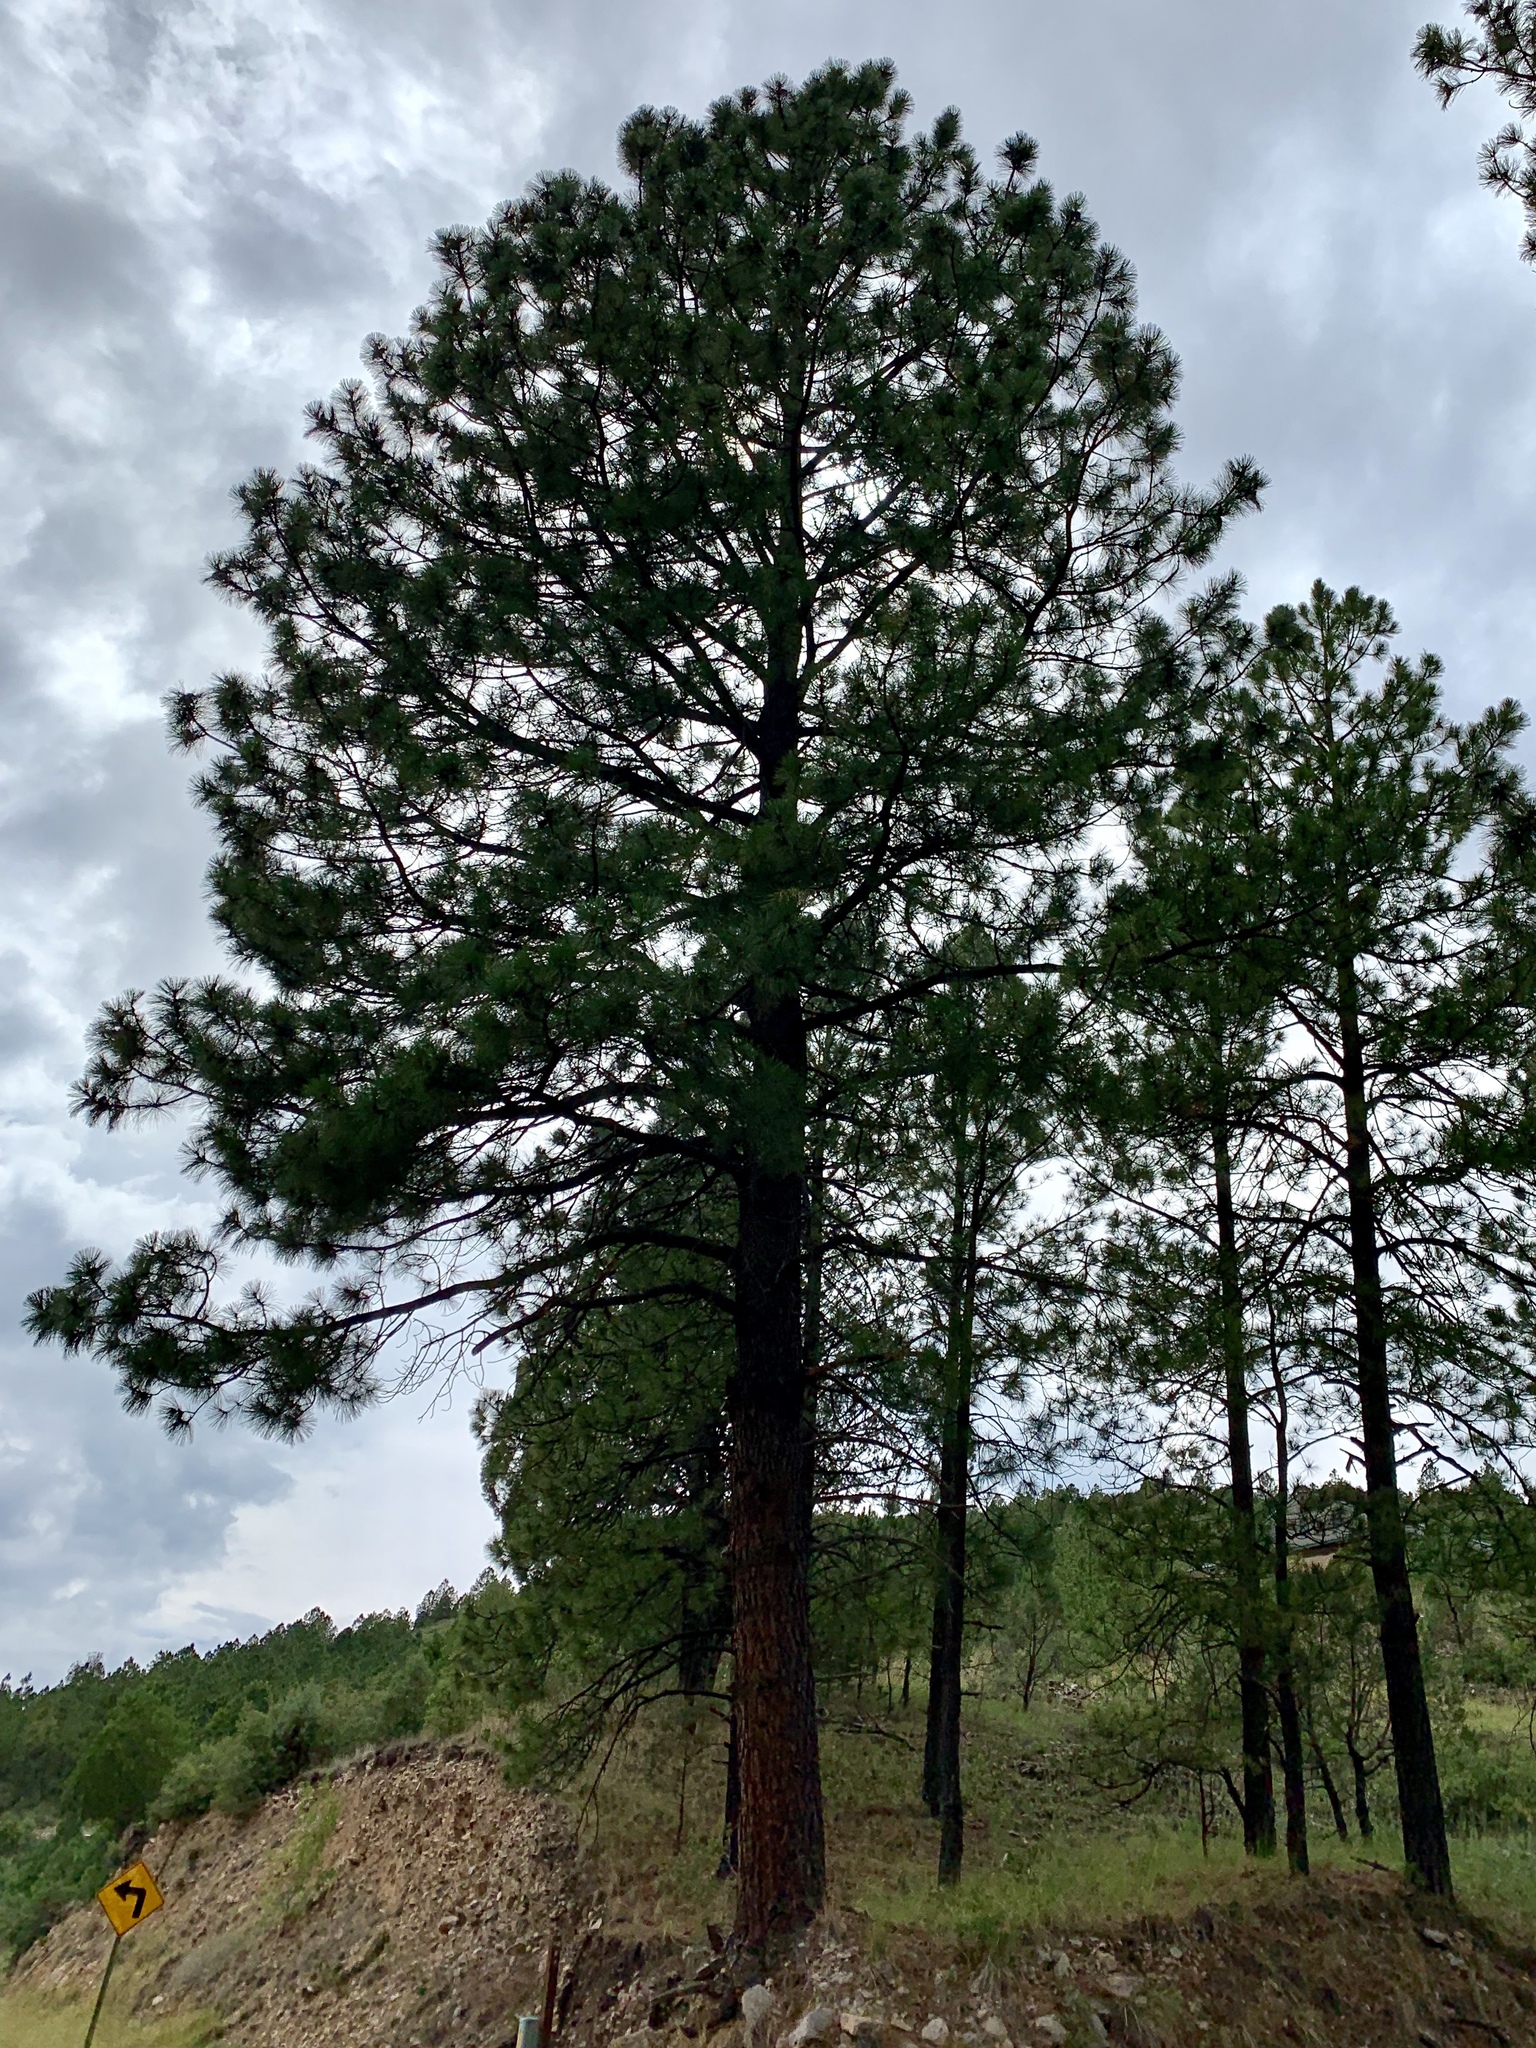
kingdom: Plantae
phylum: Tracheophyta
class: Pinopsida
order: Pinales
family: Pinaceae
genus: Pinus
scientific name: Pinus ponderosa
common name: Western yellow-pine
